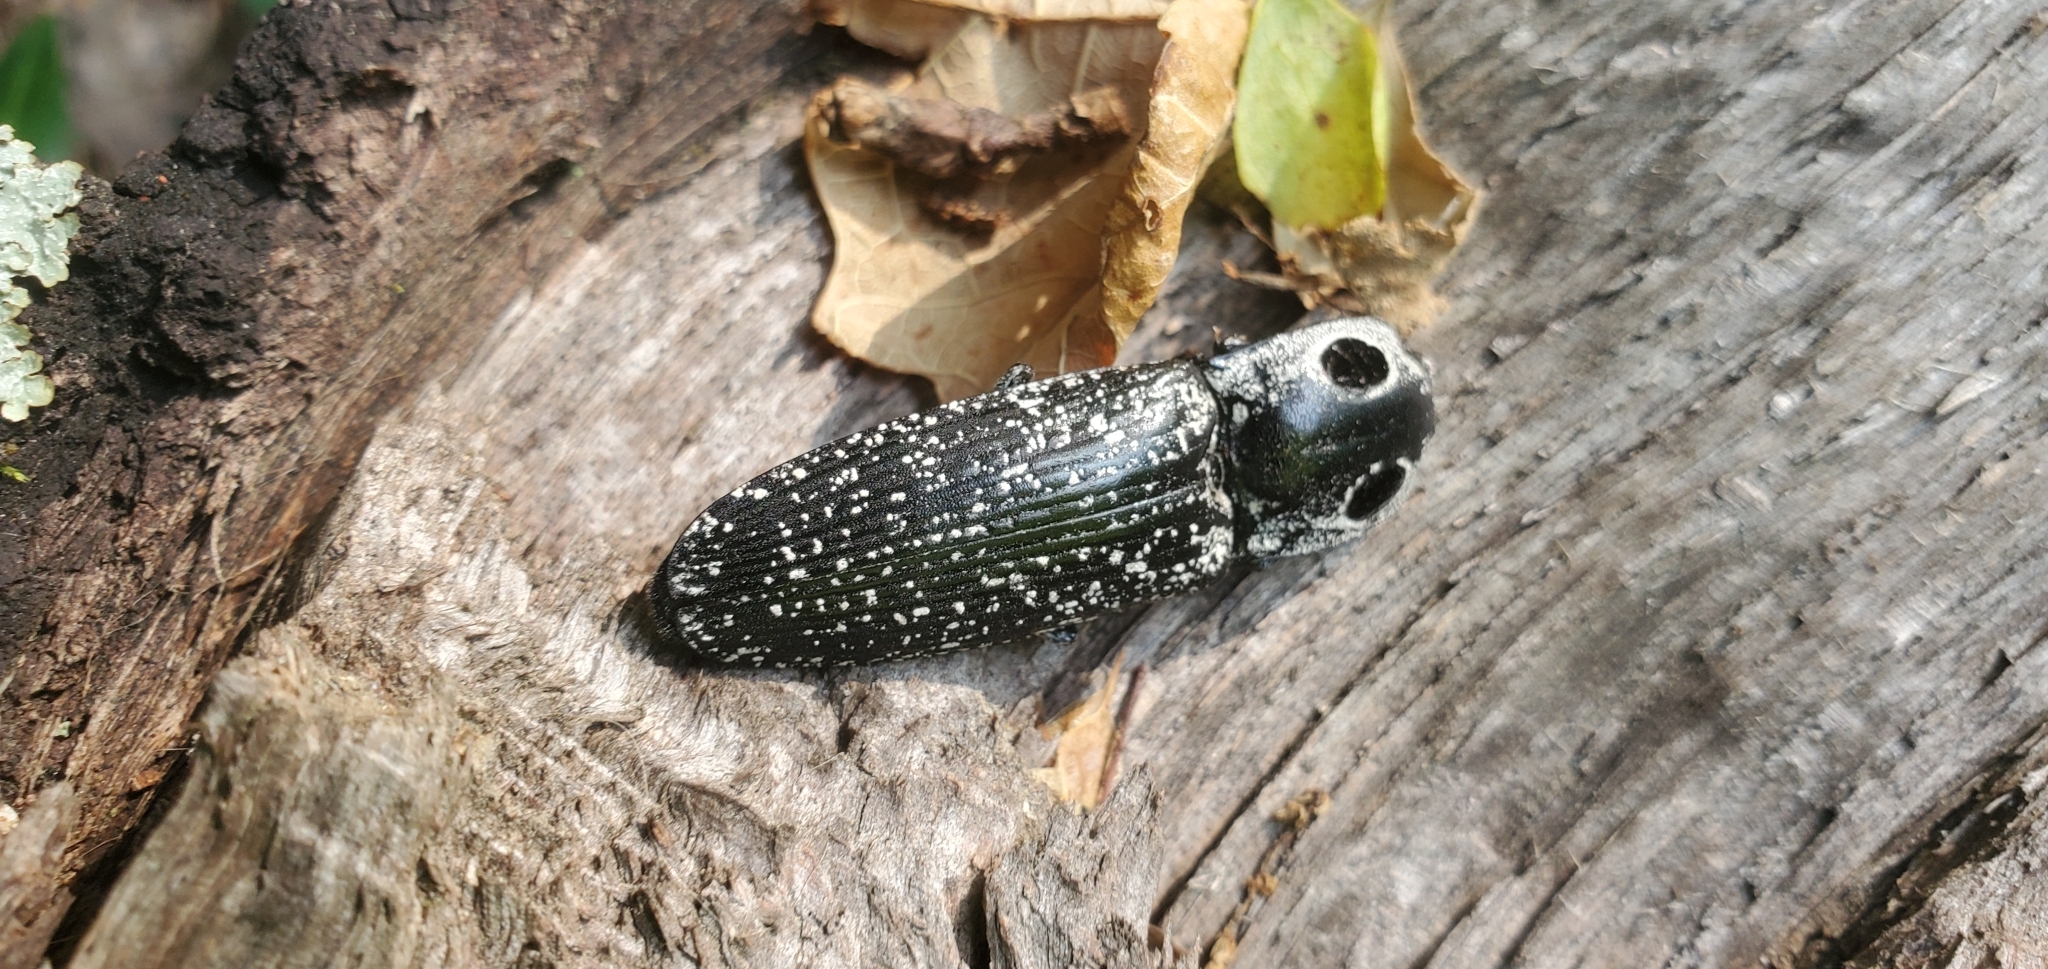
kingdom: Animalia
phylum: Arthropoda
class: Insecta
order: Coleoptera
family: Elateridae
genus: Alaus
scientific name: Alaus oculatus
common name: Eastern eyed click beetle
